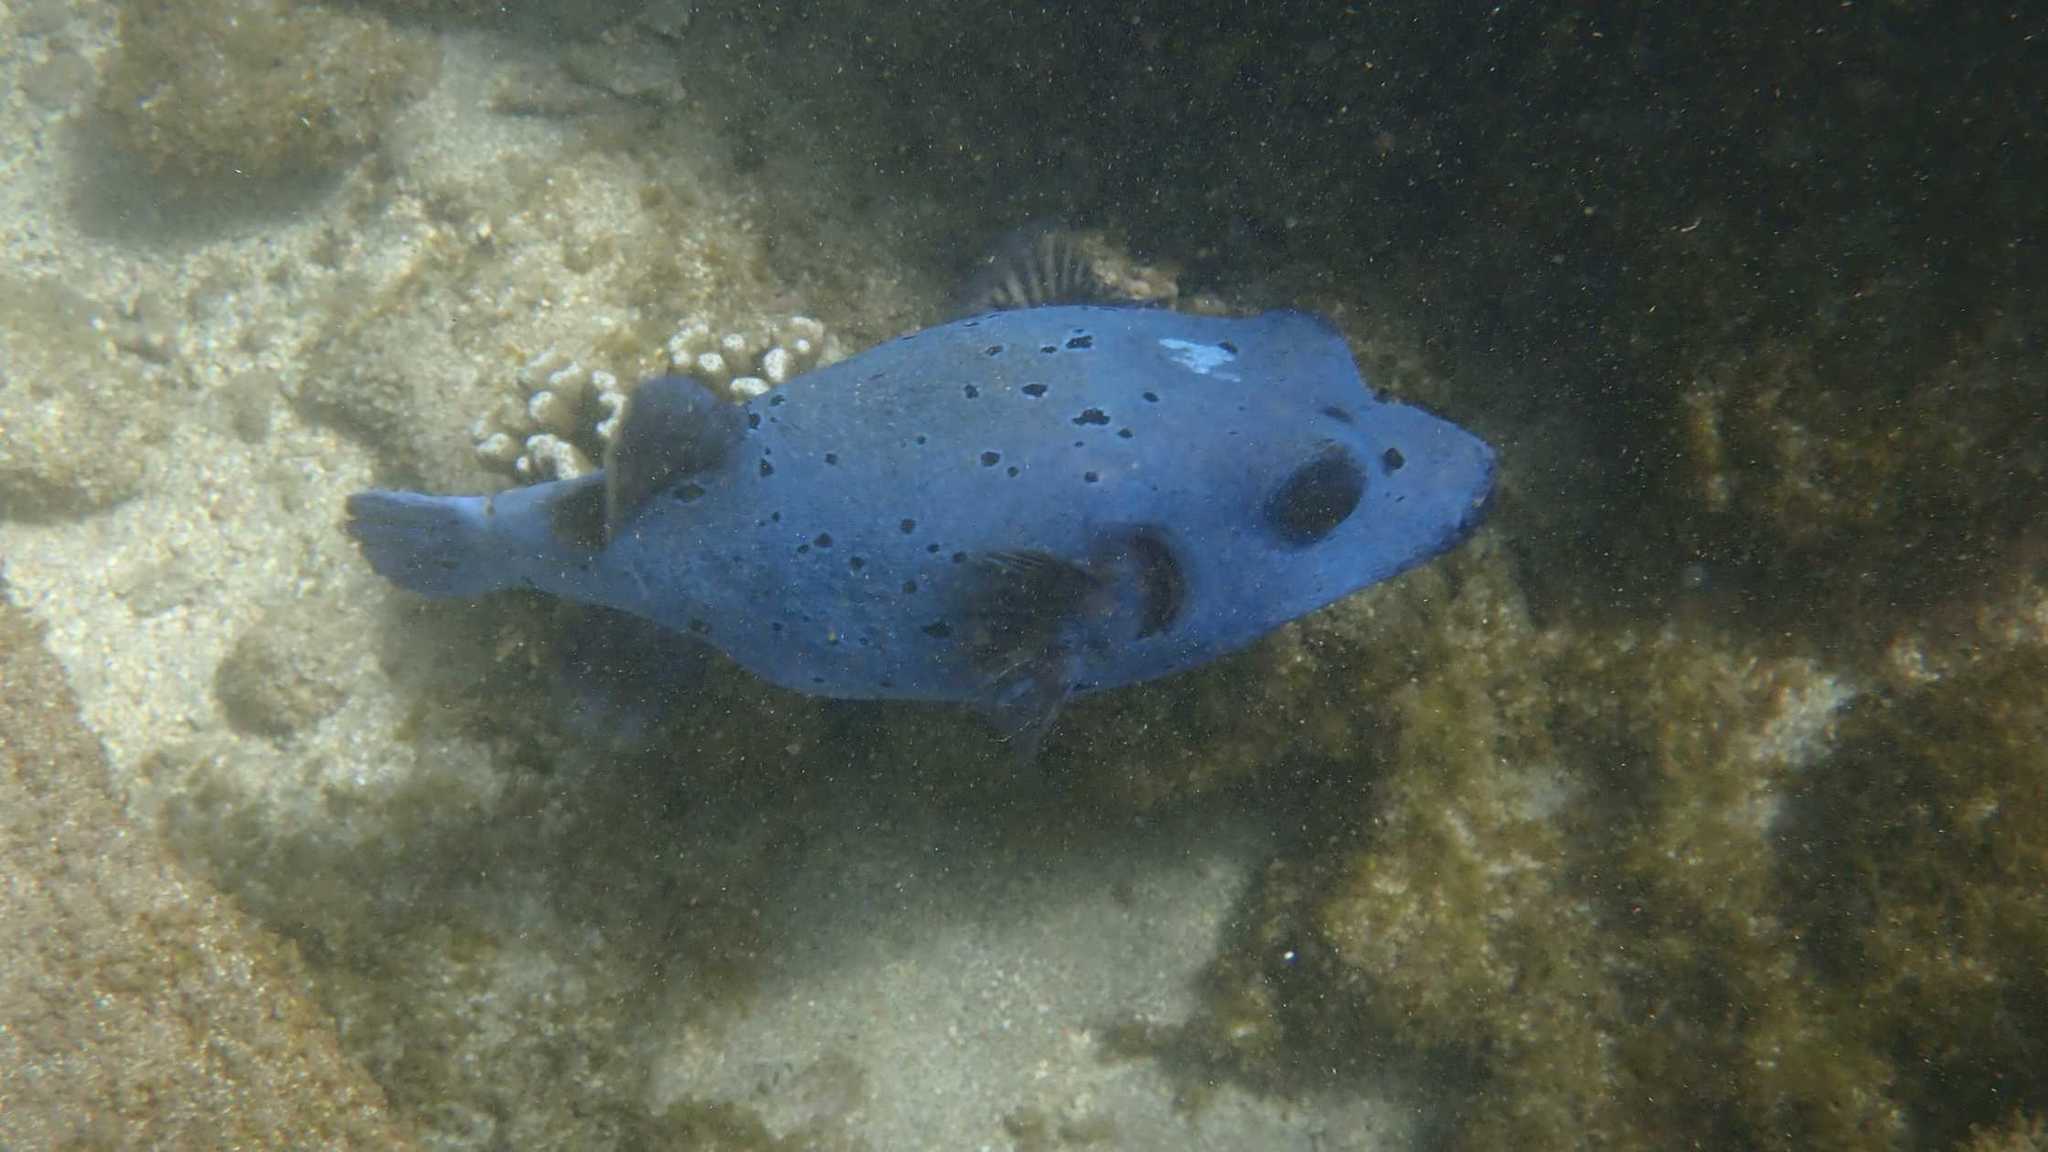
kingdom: Animalia
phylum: Chordata
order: Tetraodontiformes
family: Tetraodontidae
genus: Arothron
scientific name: Arothron nigropunctatus
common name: Black spotted blow fish
